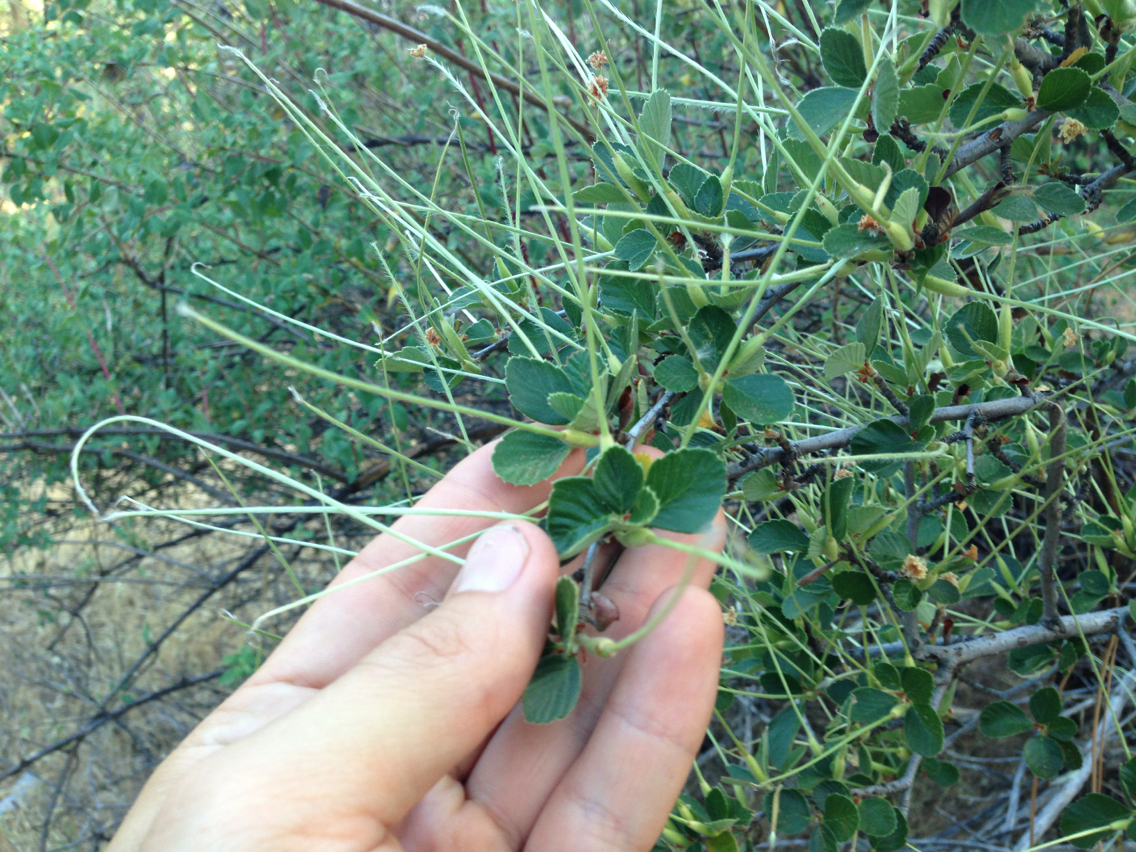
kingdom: Plantae
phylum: Tracheophyta
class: Magnoliopsida
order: Rosales
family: Rosaceae
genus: Cercocarpus
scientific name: Cercocarpus betuloides
